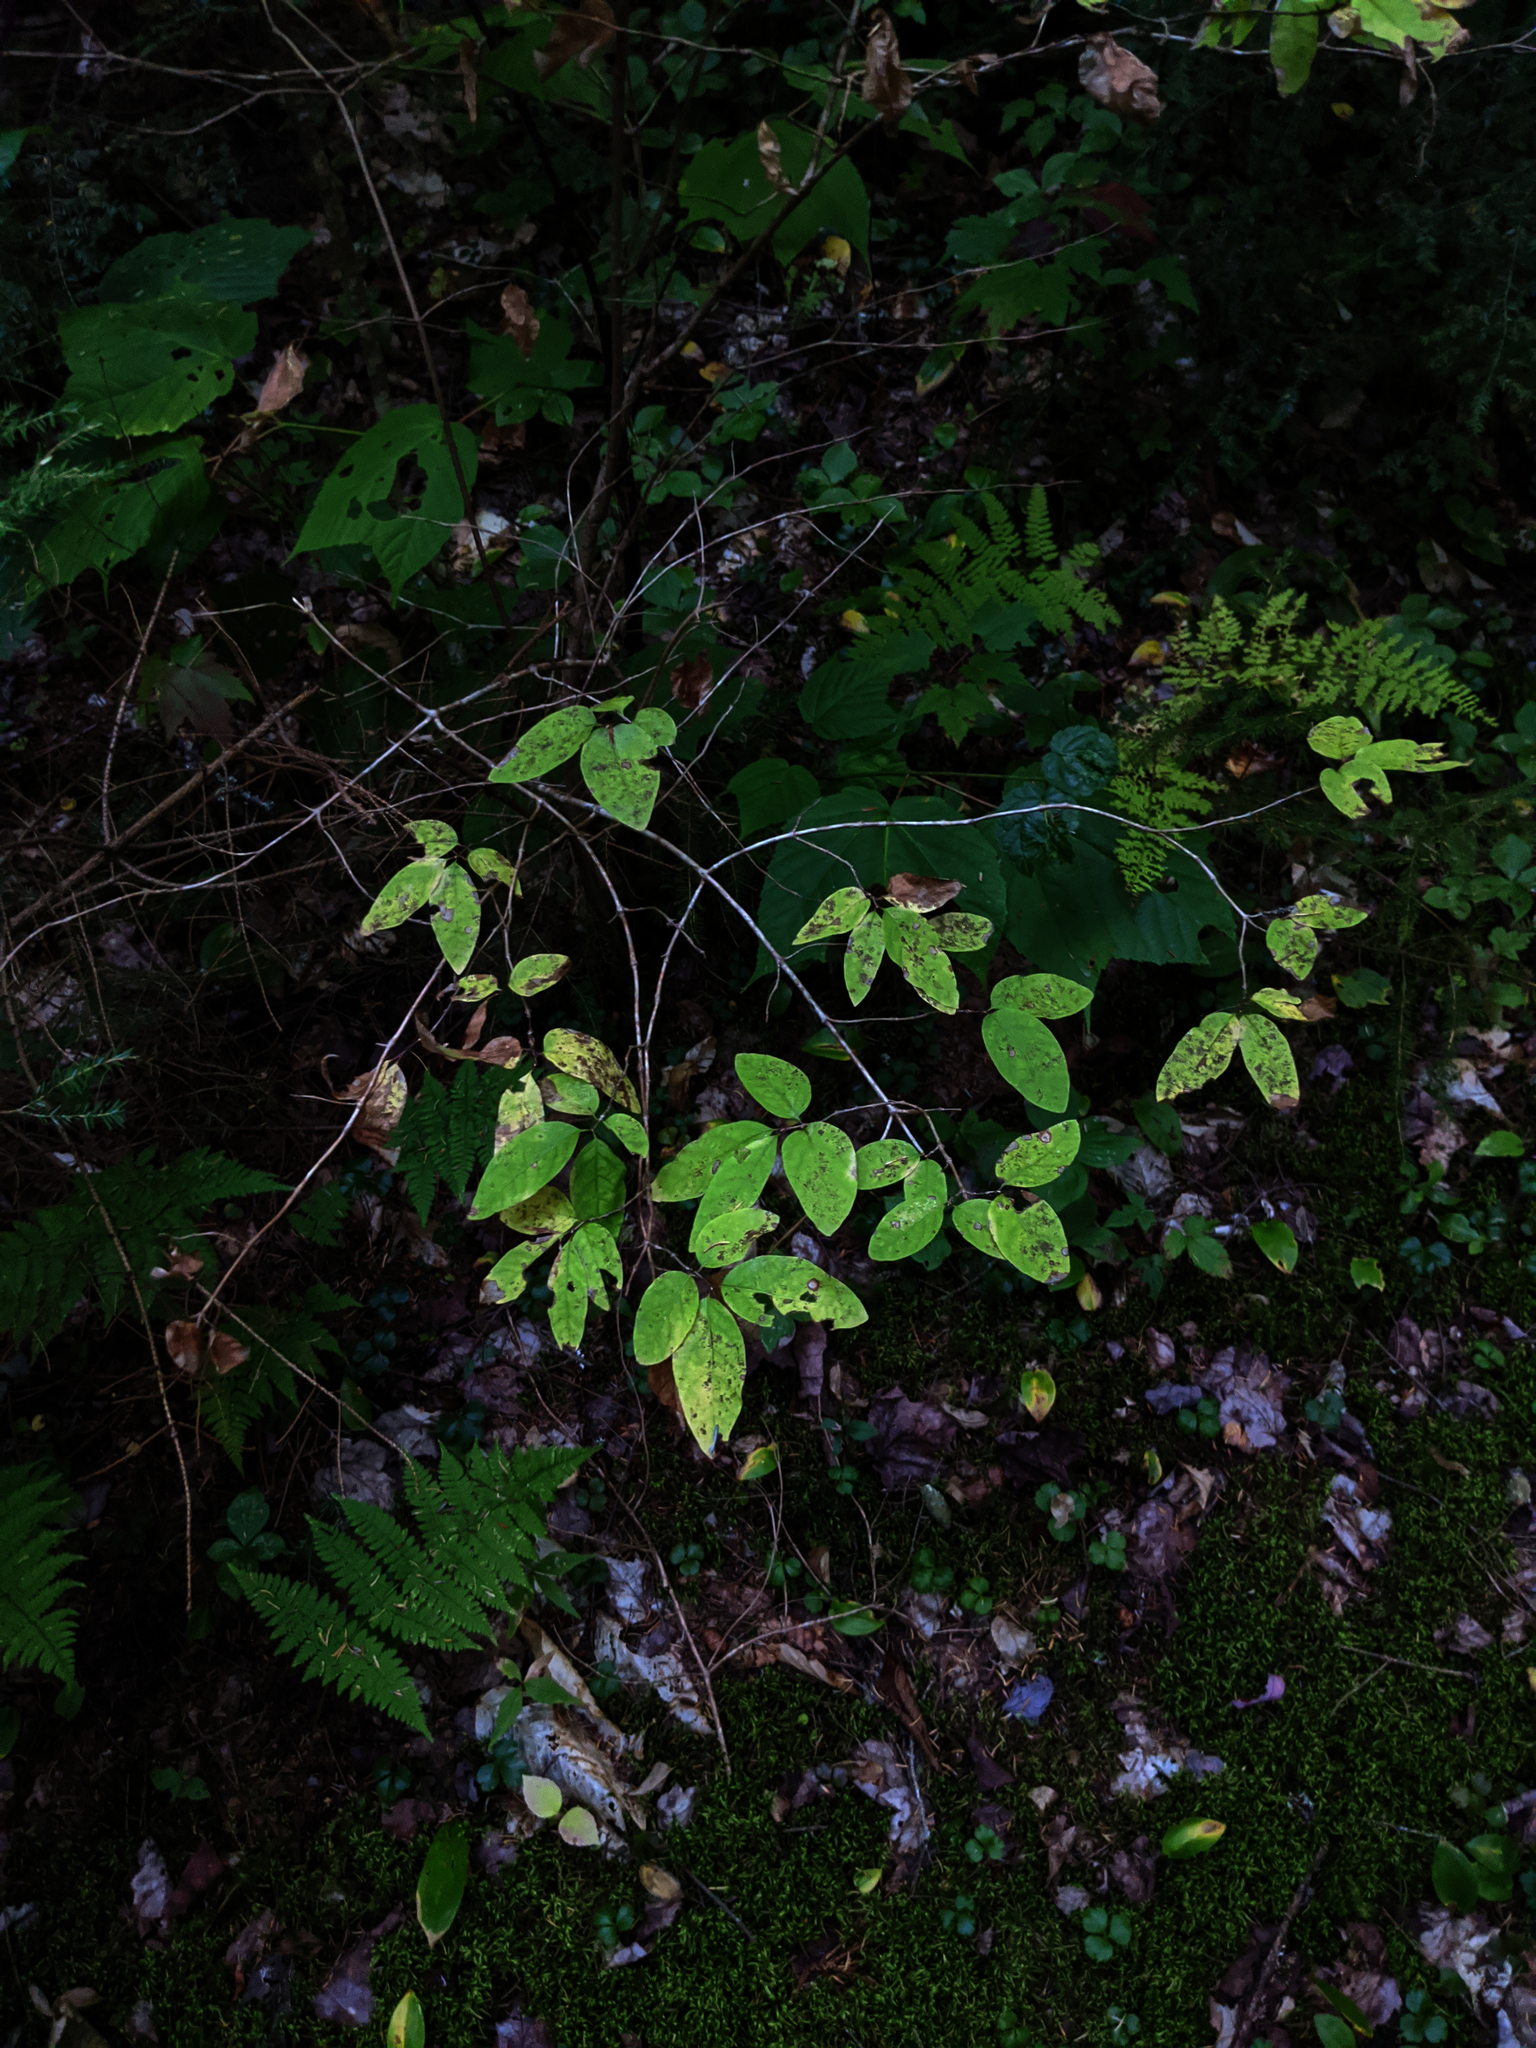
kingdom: Plantae
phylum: Tracheophyta
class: Magnoliopsida
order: Dipsacales
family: Caprifoliaceae
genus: Lonicera
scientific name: Lonicera canadensis
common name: American fly-honeysuckle
